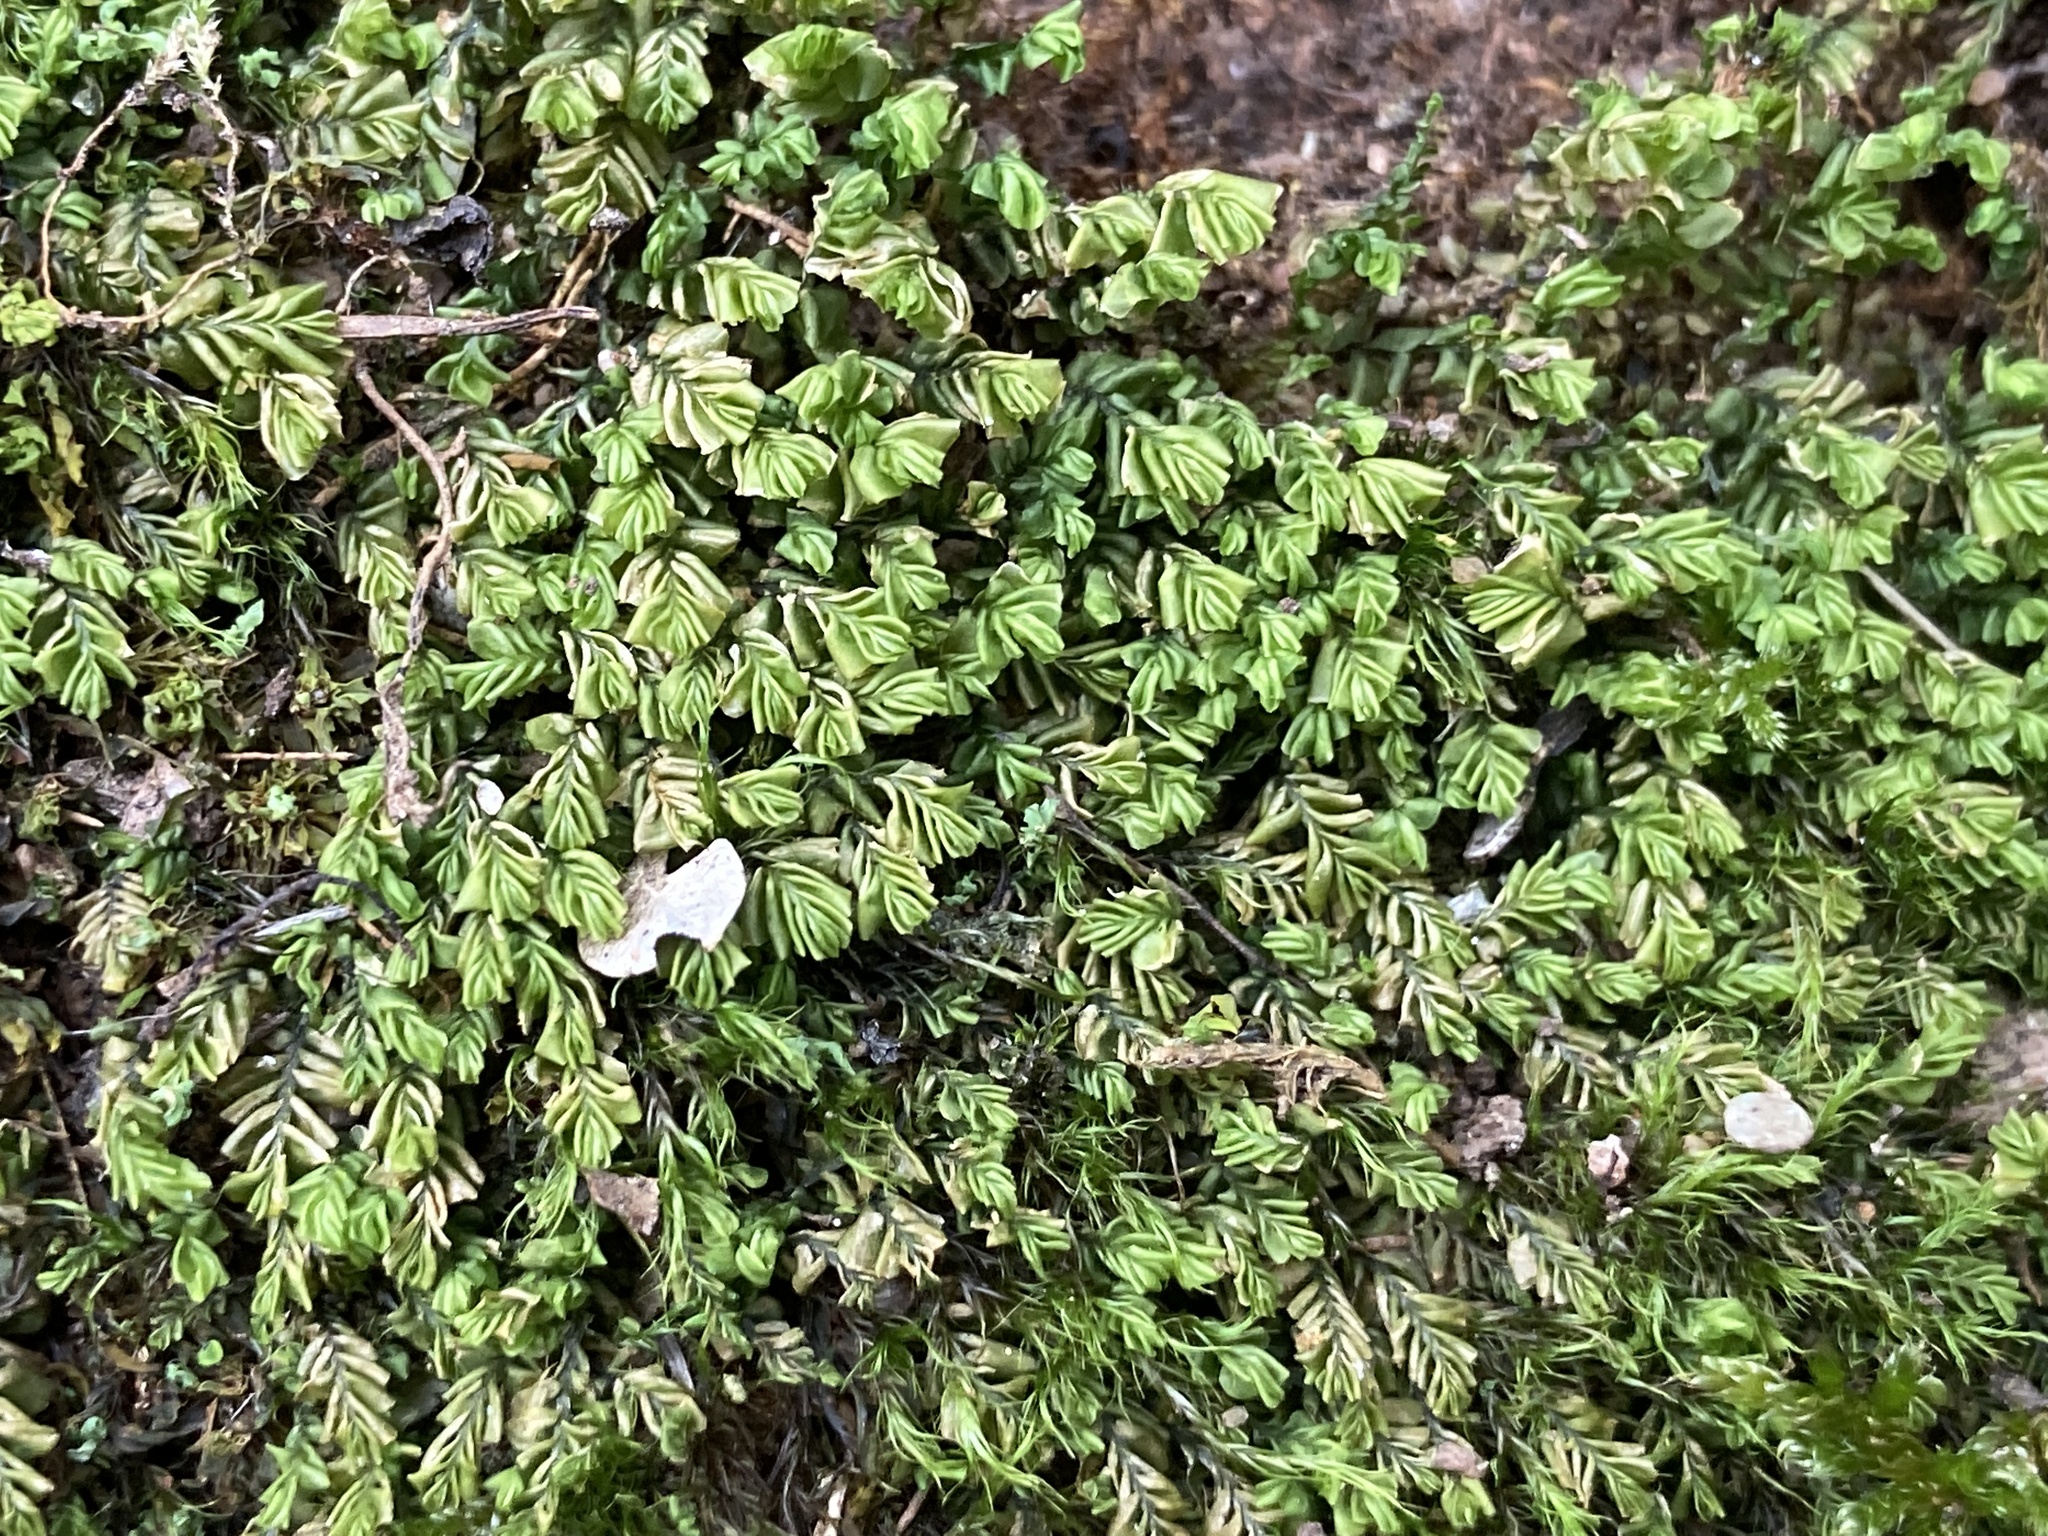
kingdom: Plantae
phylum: Marchantiophyta
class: Jungermanniopsida
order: Jungermanniales
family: Plagiochilaceae
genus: Plagiochila
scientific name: Plagiochila porelloides
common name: Lesser featherwort
